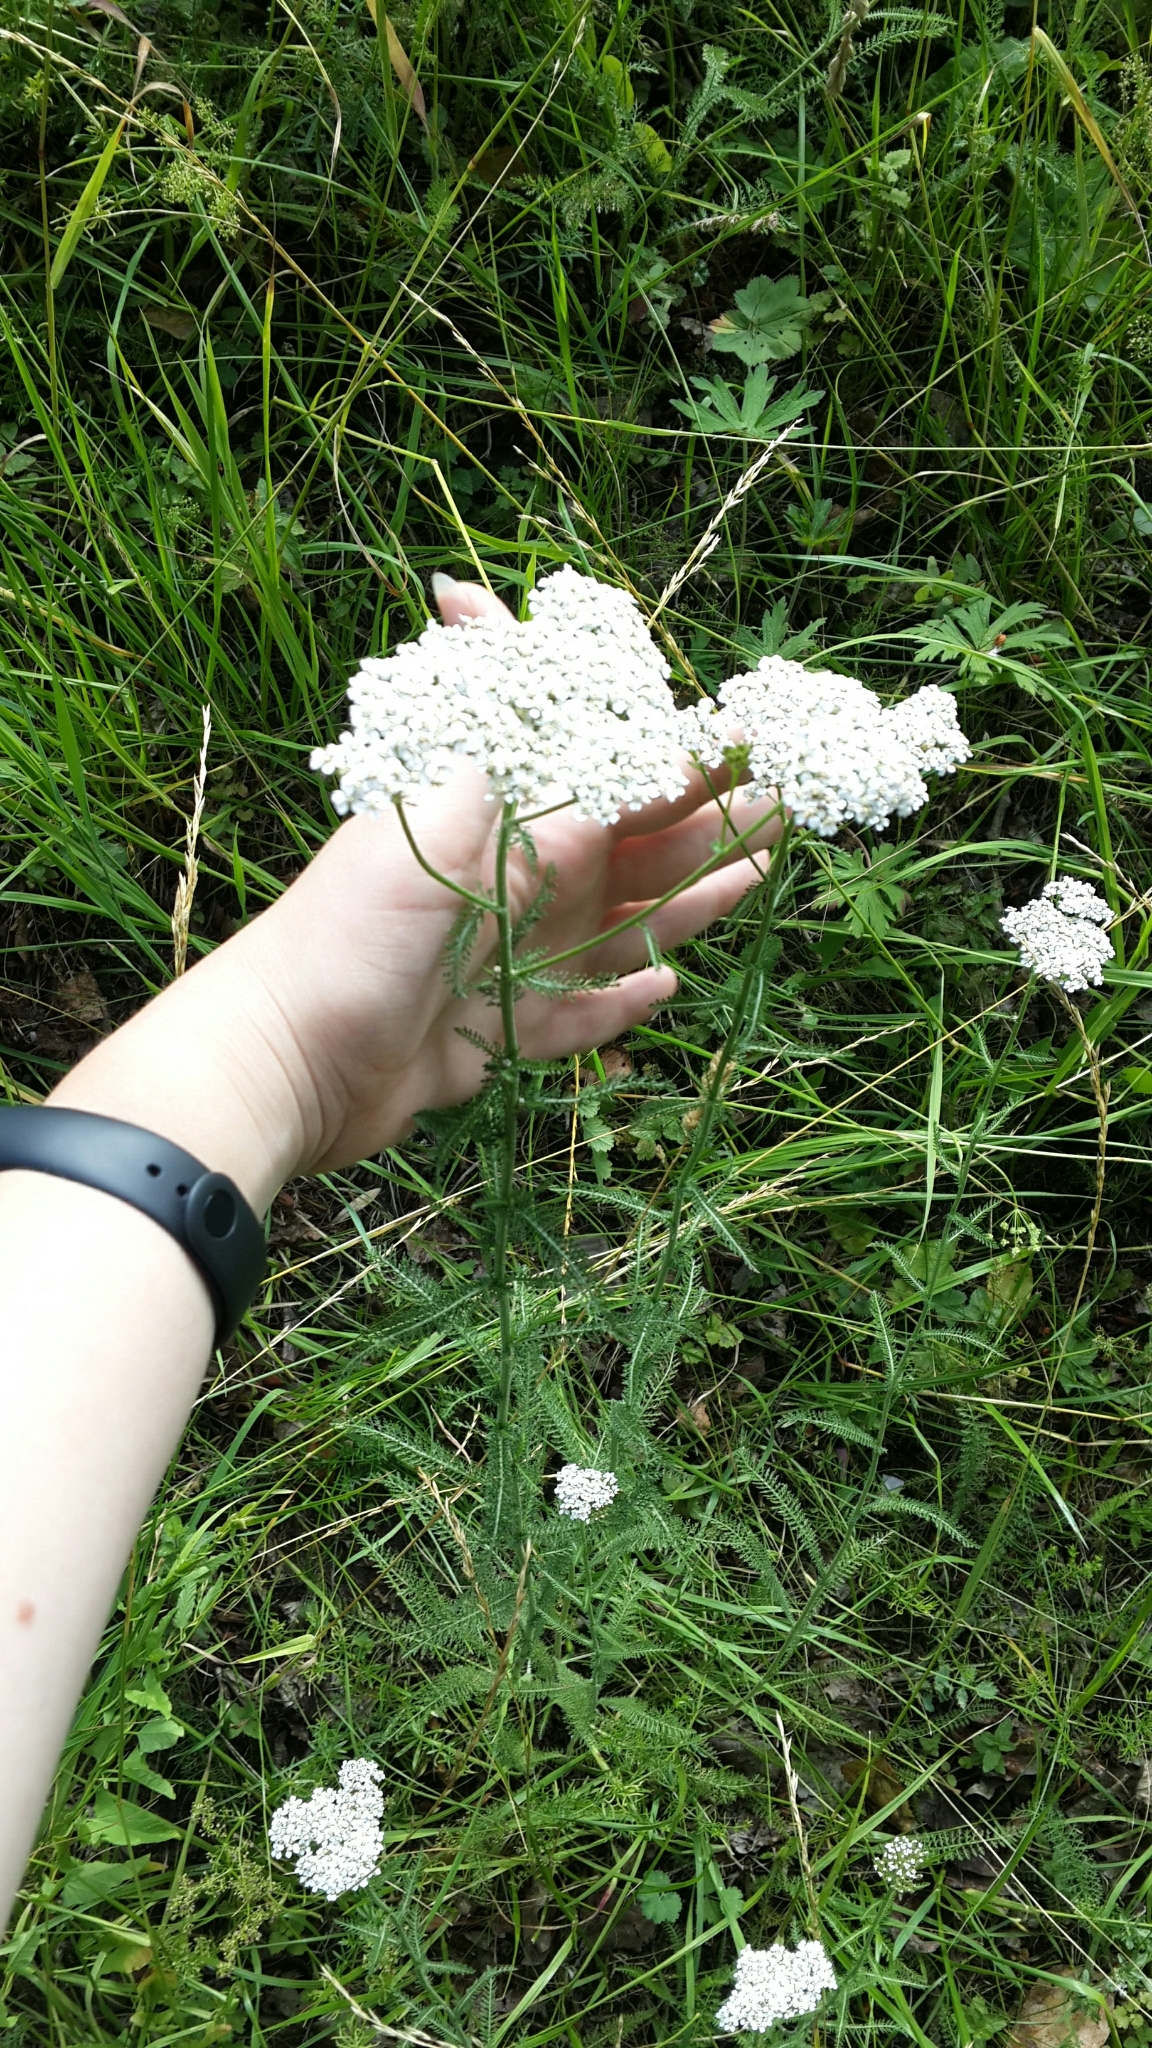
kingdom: Plantae
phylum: Tracheophyta
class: Magnoliopsida
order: Asterales
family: Asteraceae
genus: Achillea
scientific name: Achillea millefolium
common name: Yarrow
